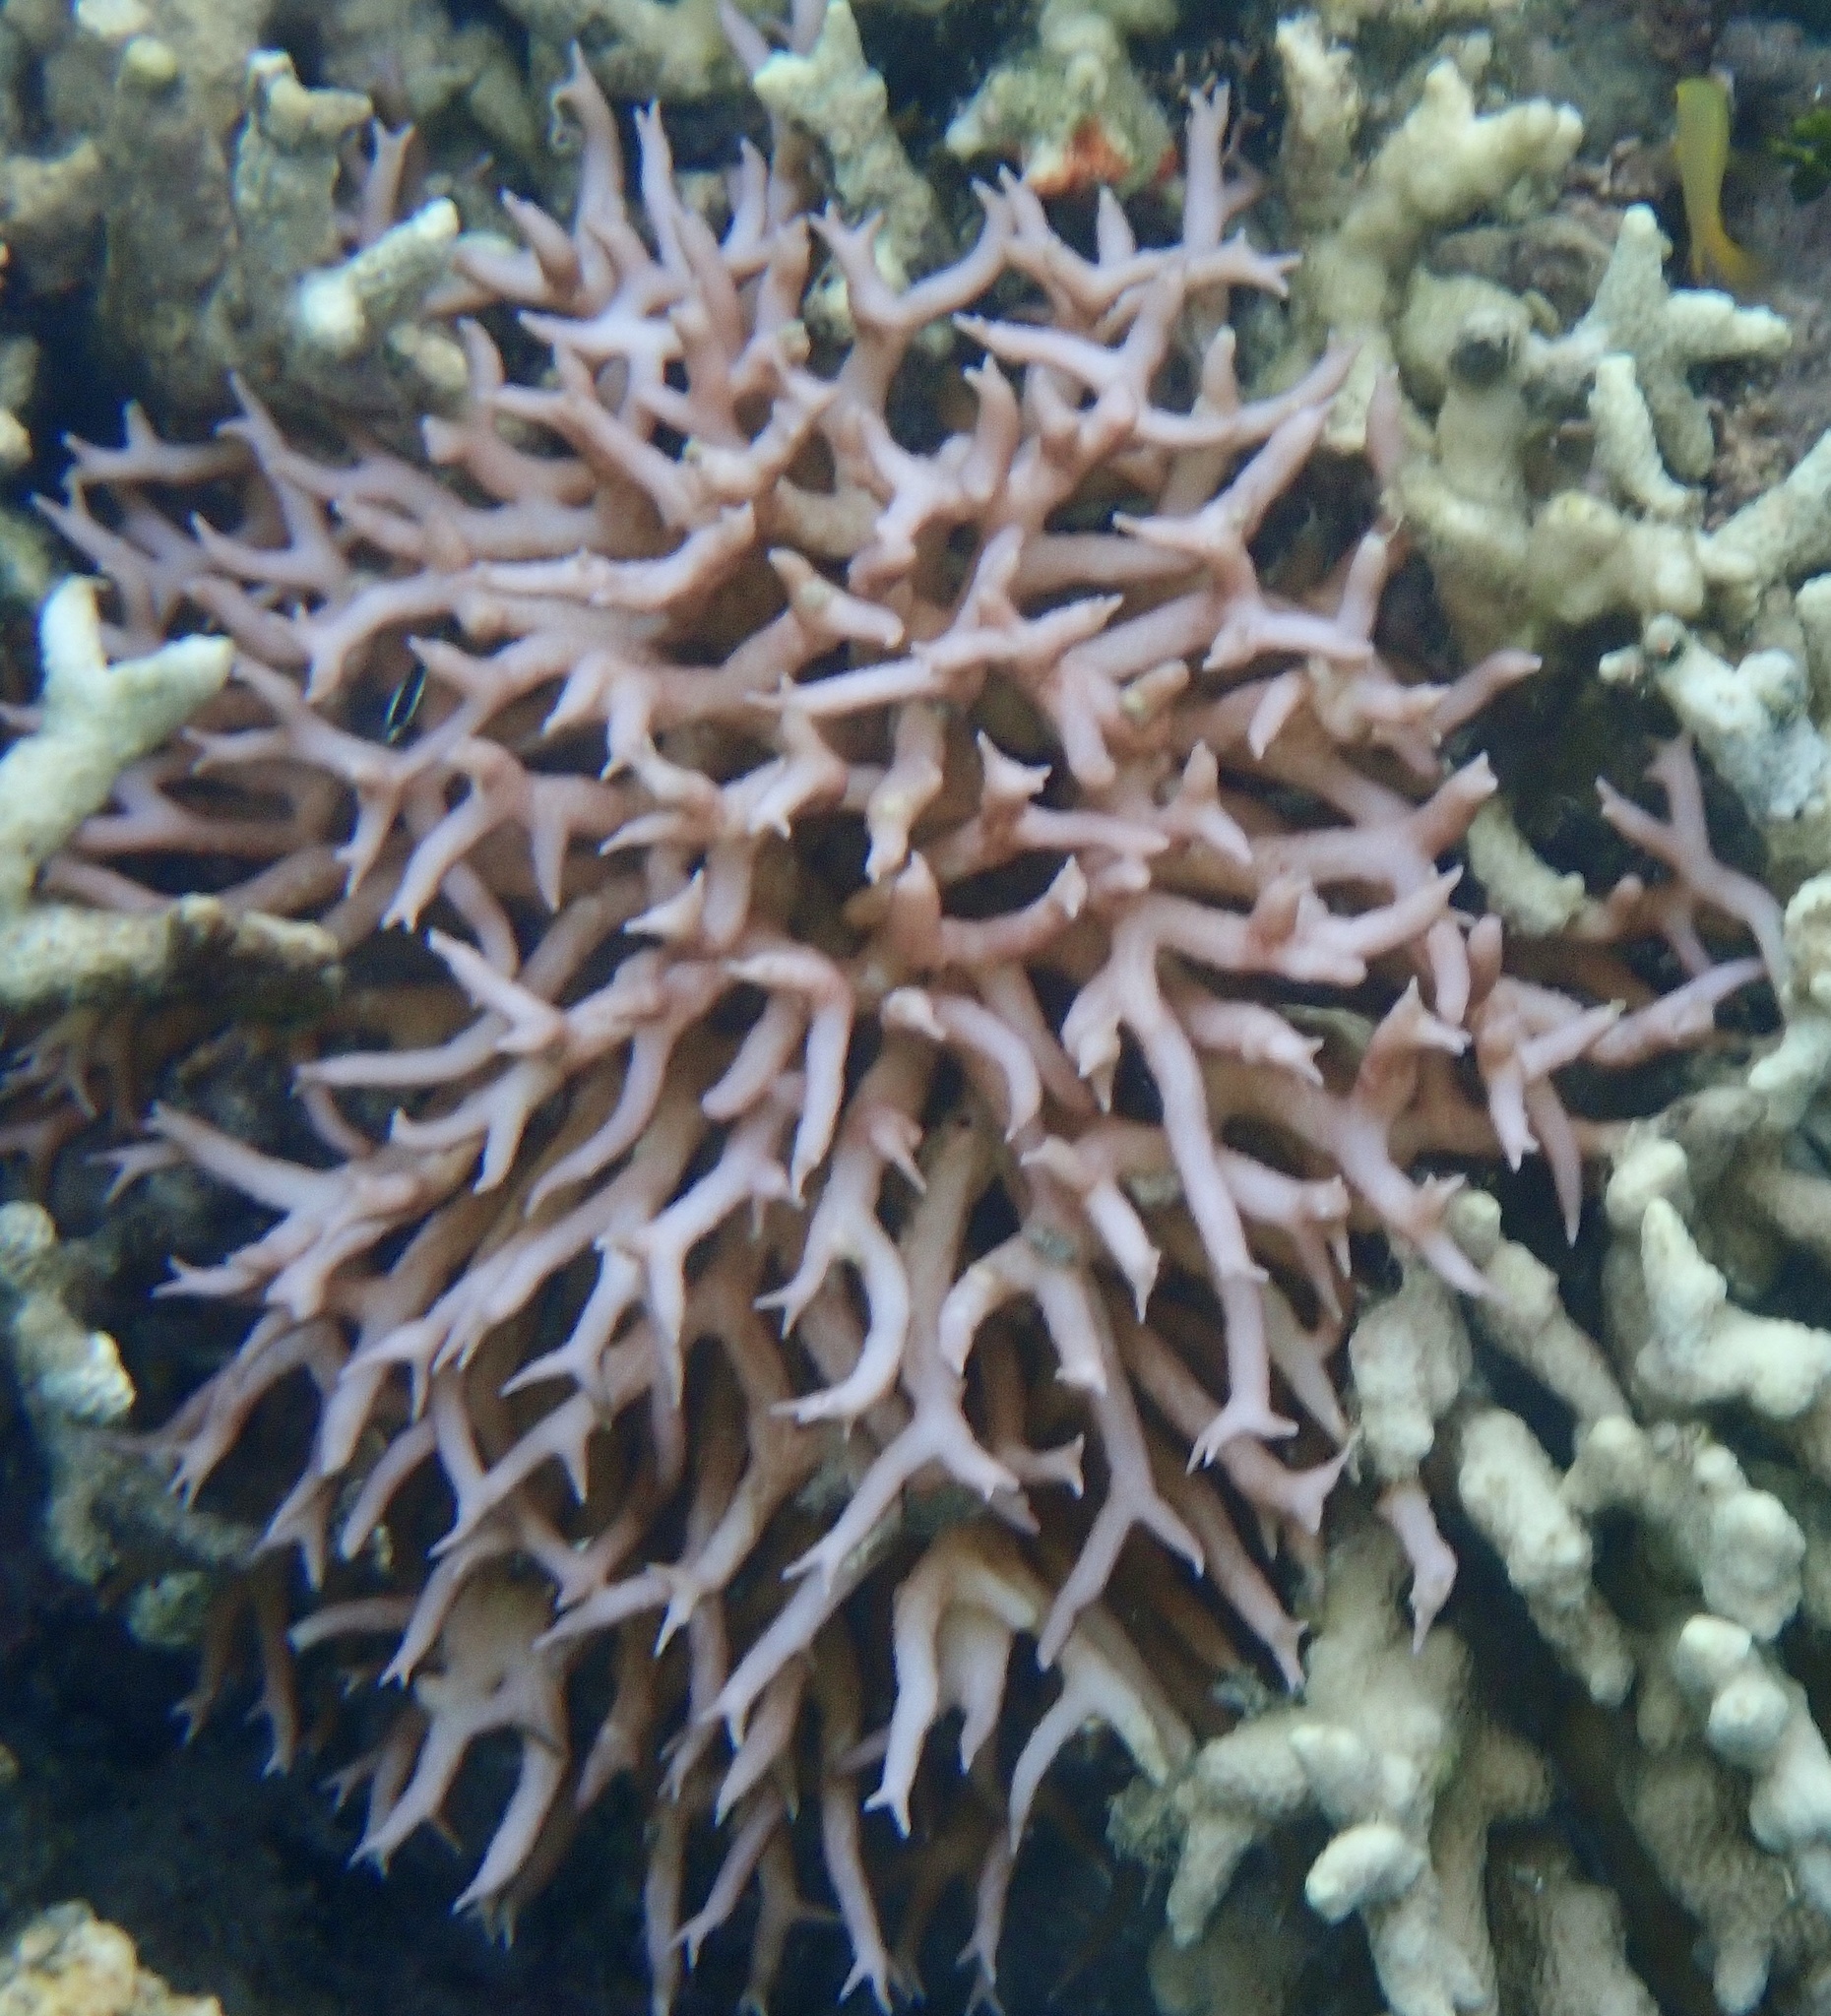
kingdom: Animalia
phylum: Cnidaria
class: Anthozoa
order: Scleractinia
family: Pocilloporidae
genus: Seriatopora
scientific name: Seriatopora hystrix
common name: Bush coral
